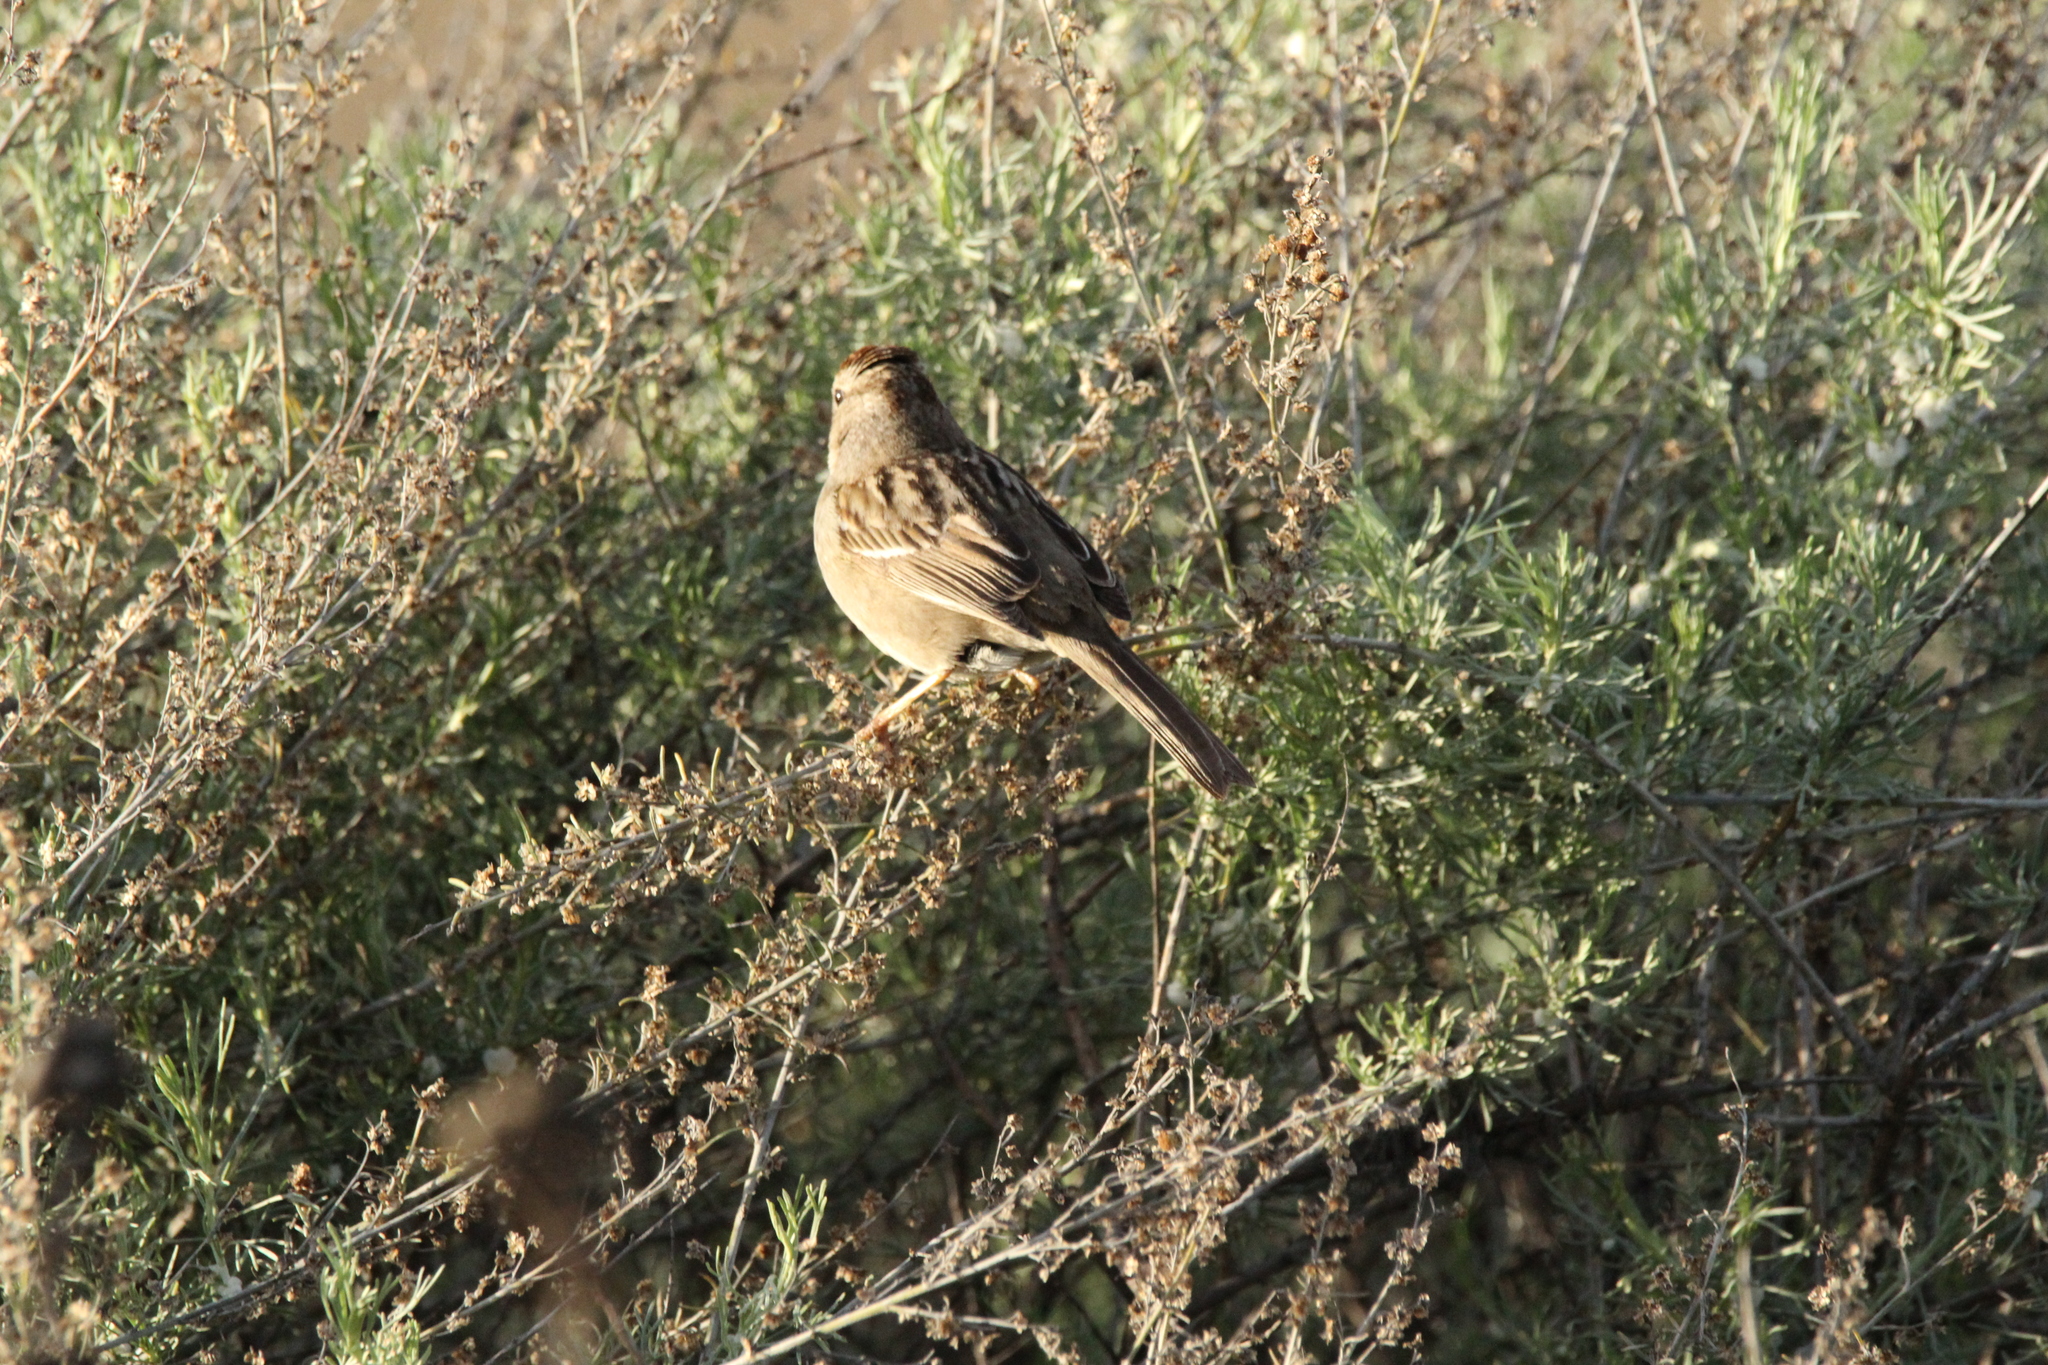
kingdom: Animalia
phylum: Chordata
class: Aves
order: Passeriformes
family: Passerellidae
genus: Zonotrichia
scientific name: Zonotrichia leucophrys
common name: White-crowned sparrow
